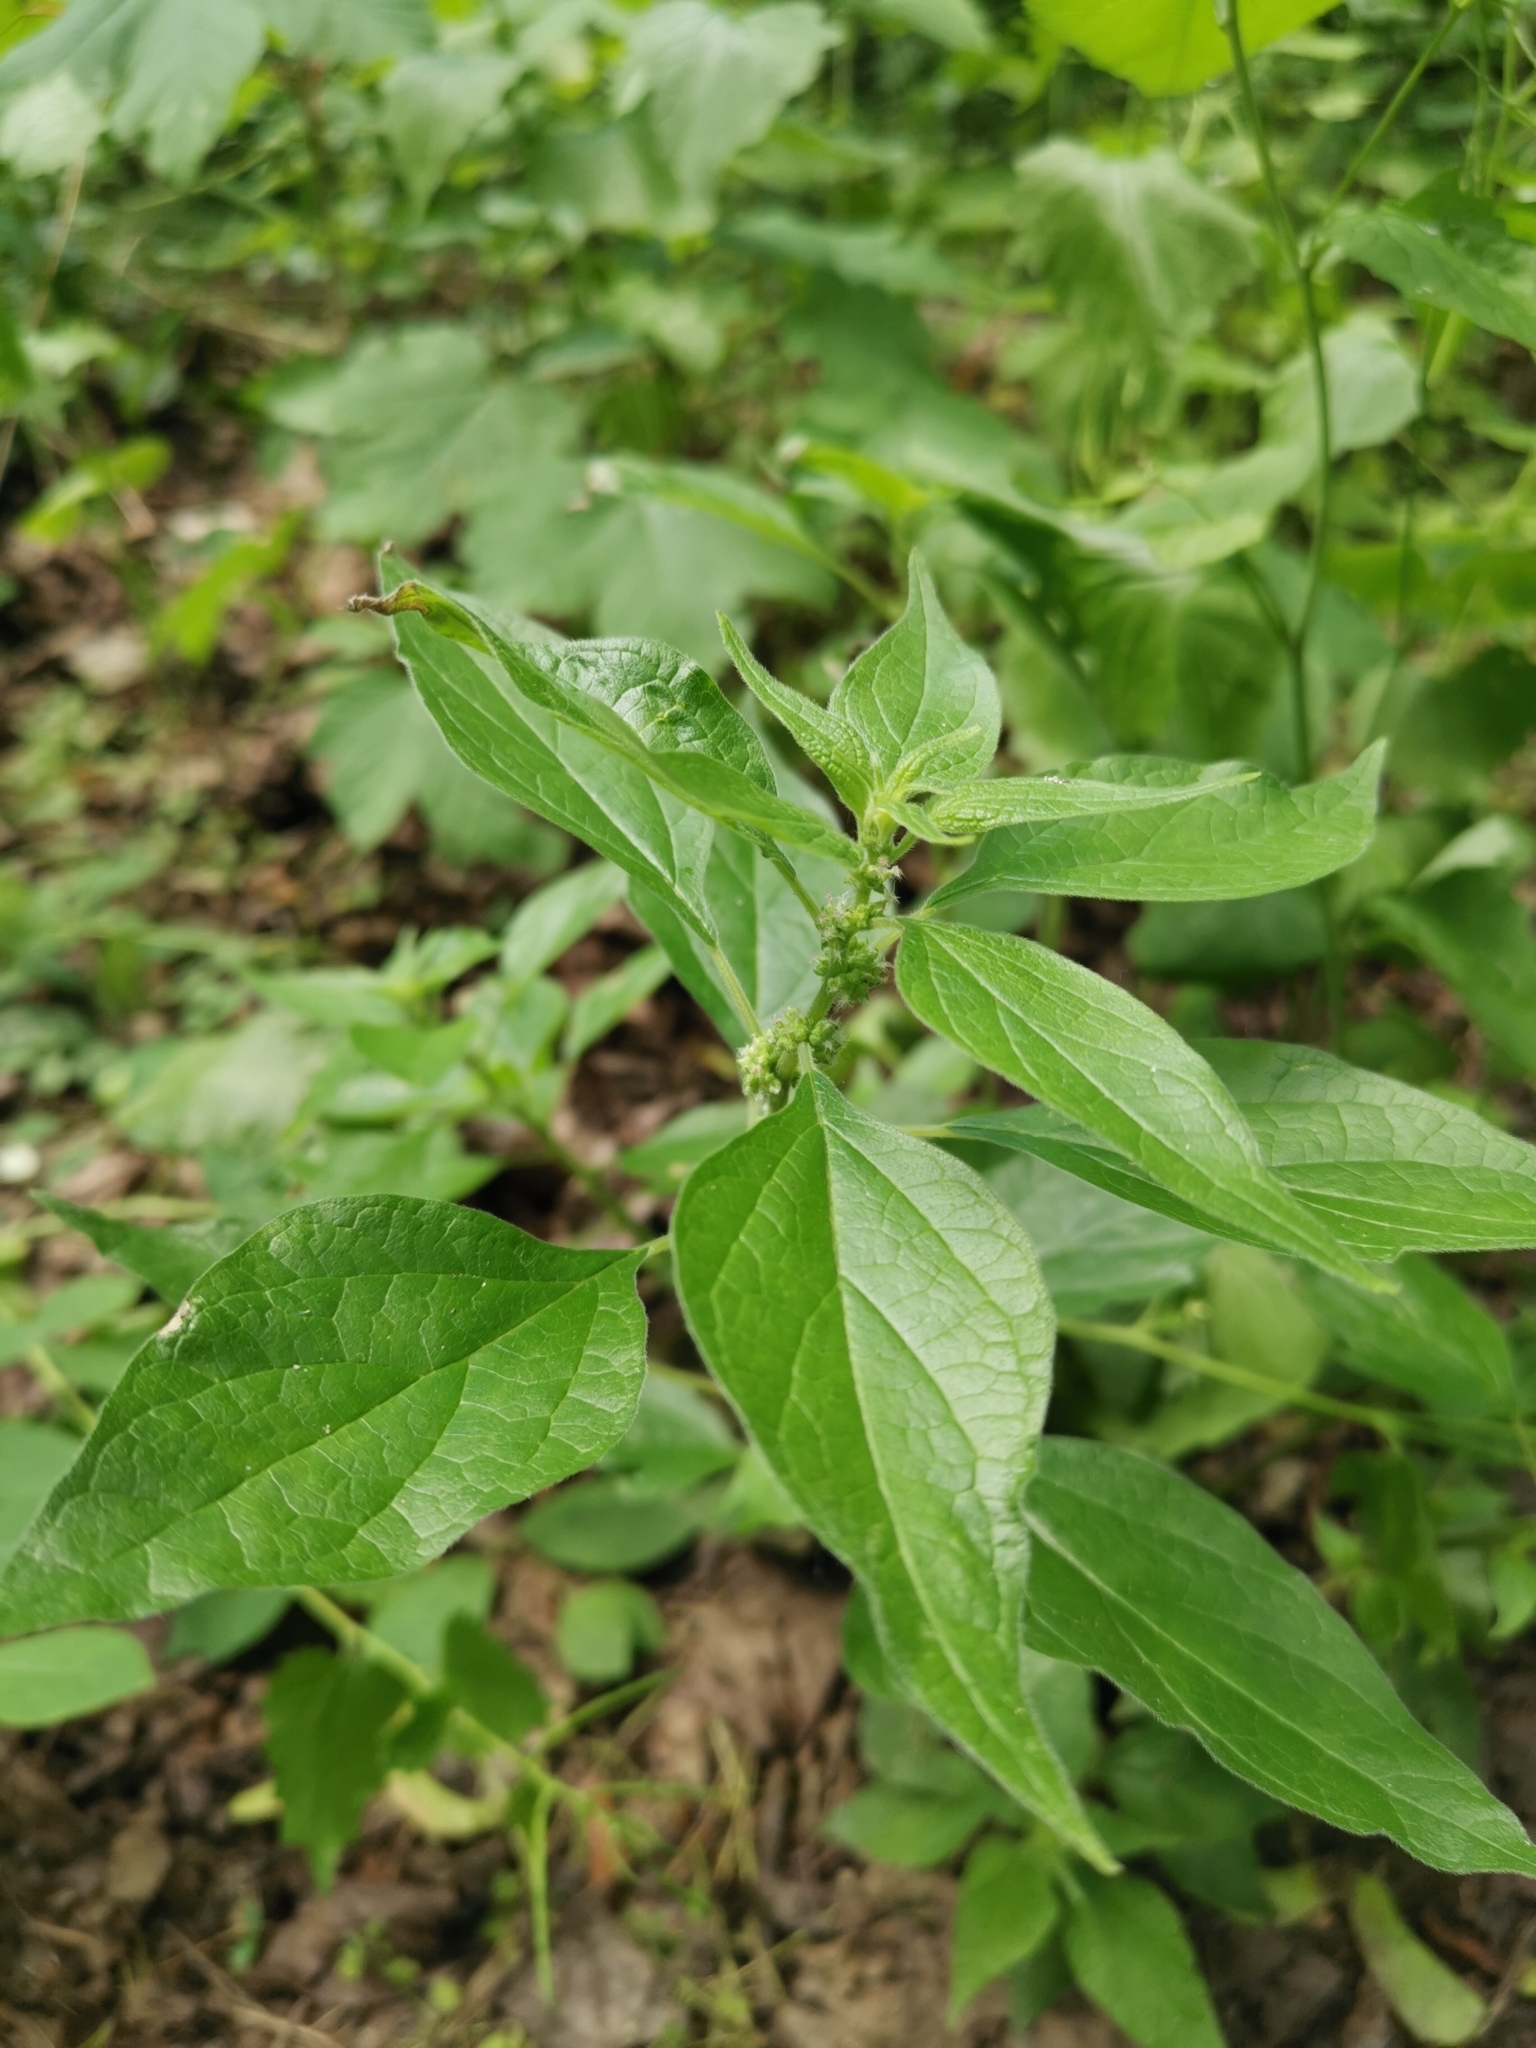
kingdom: Plantae
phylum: Tracheophyta
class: Magnoliopsida
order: Rosales
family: Urticaceae
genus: Parietaria
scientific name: Parietaria officinalis
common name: Eastern pellitory-of-the-wall
